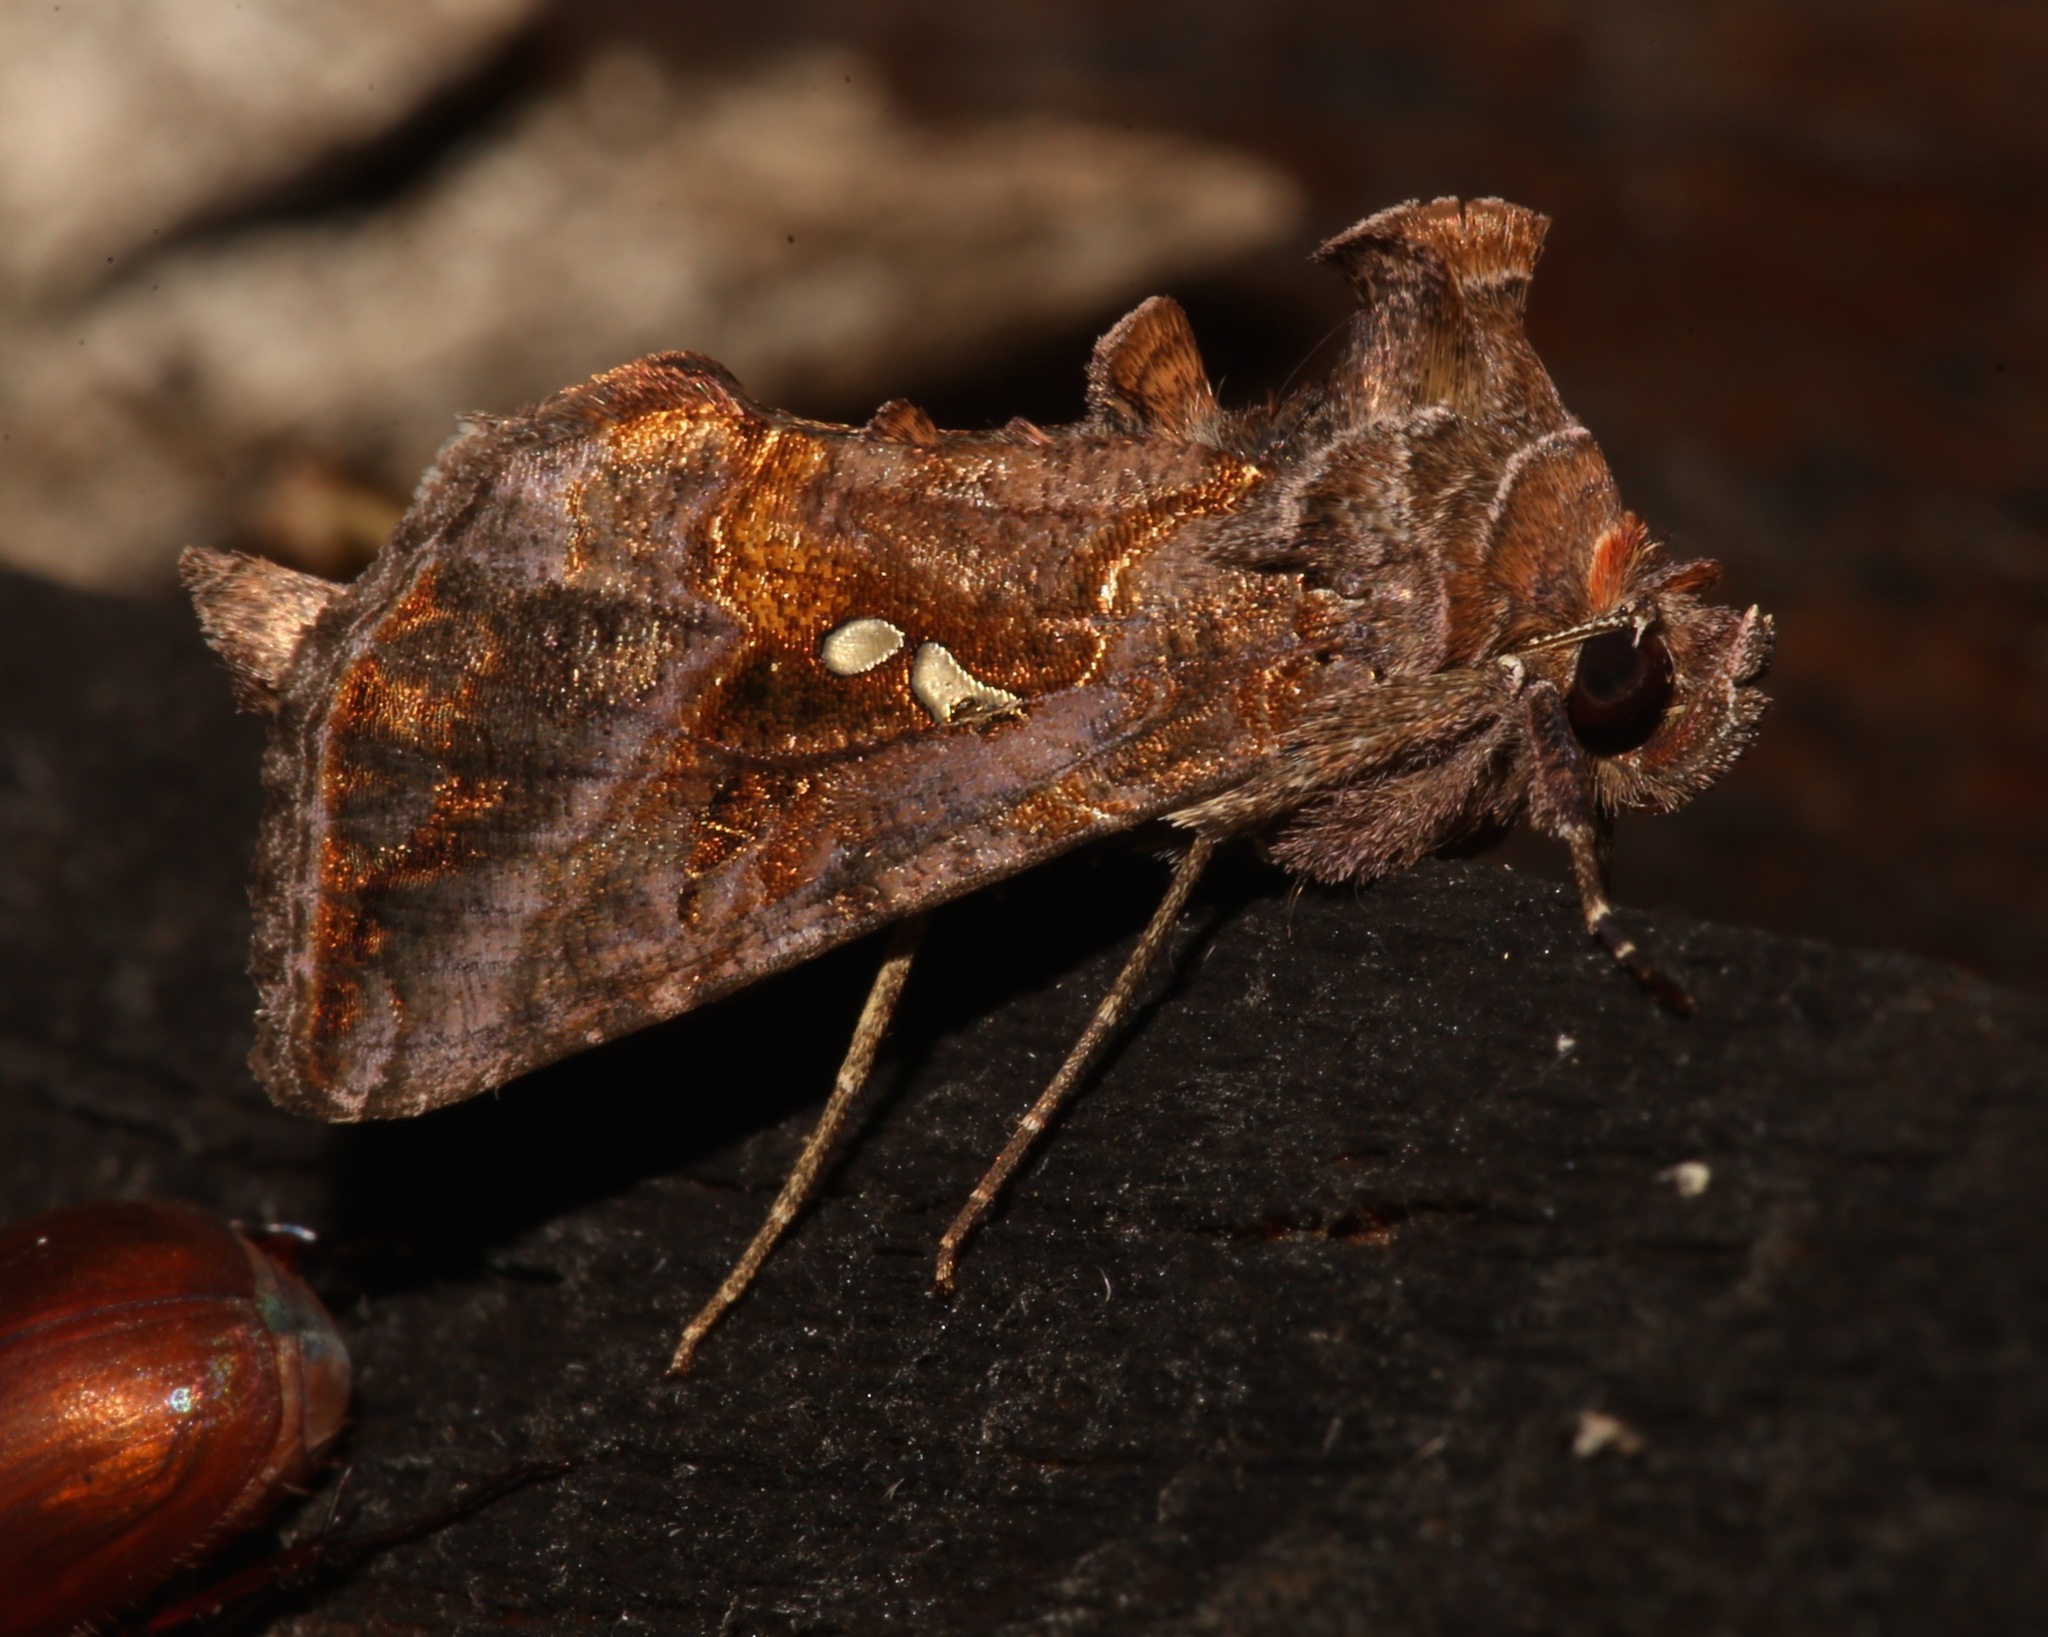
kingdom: Animalia
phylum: Arthropoda
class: Insecta
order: Lepidoptera
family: Noctuidae
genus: Autographa
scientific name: Autographa precationis
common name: Common looper moth
